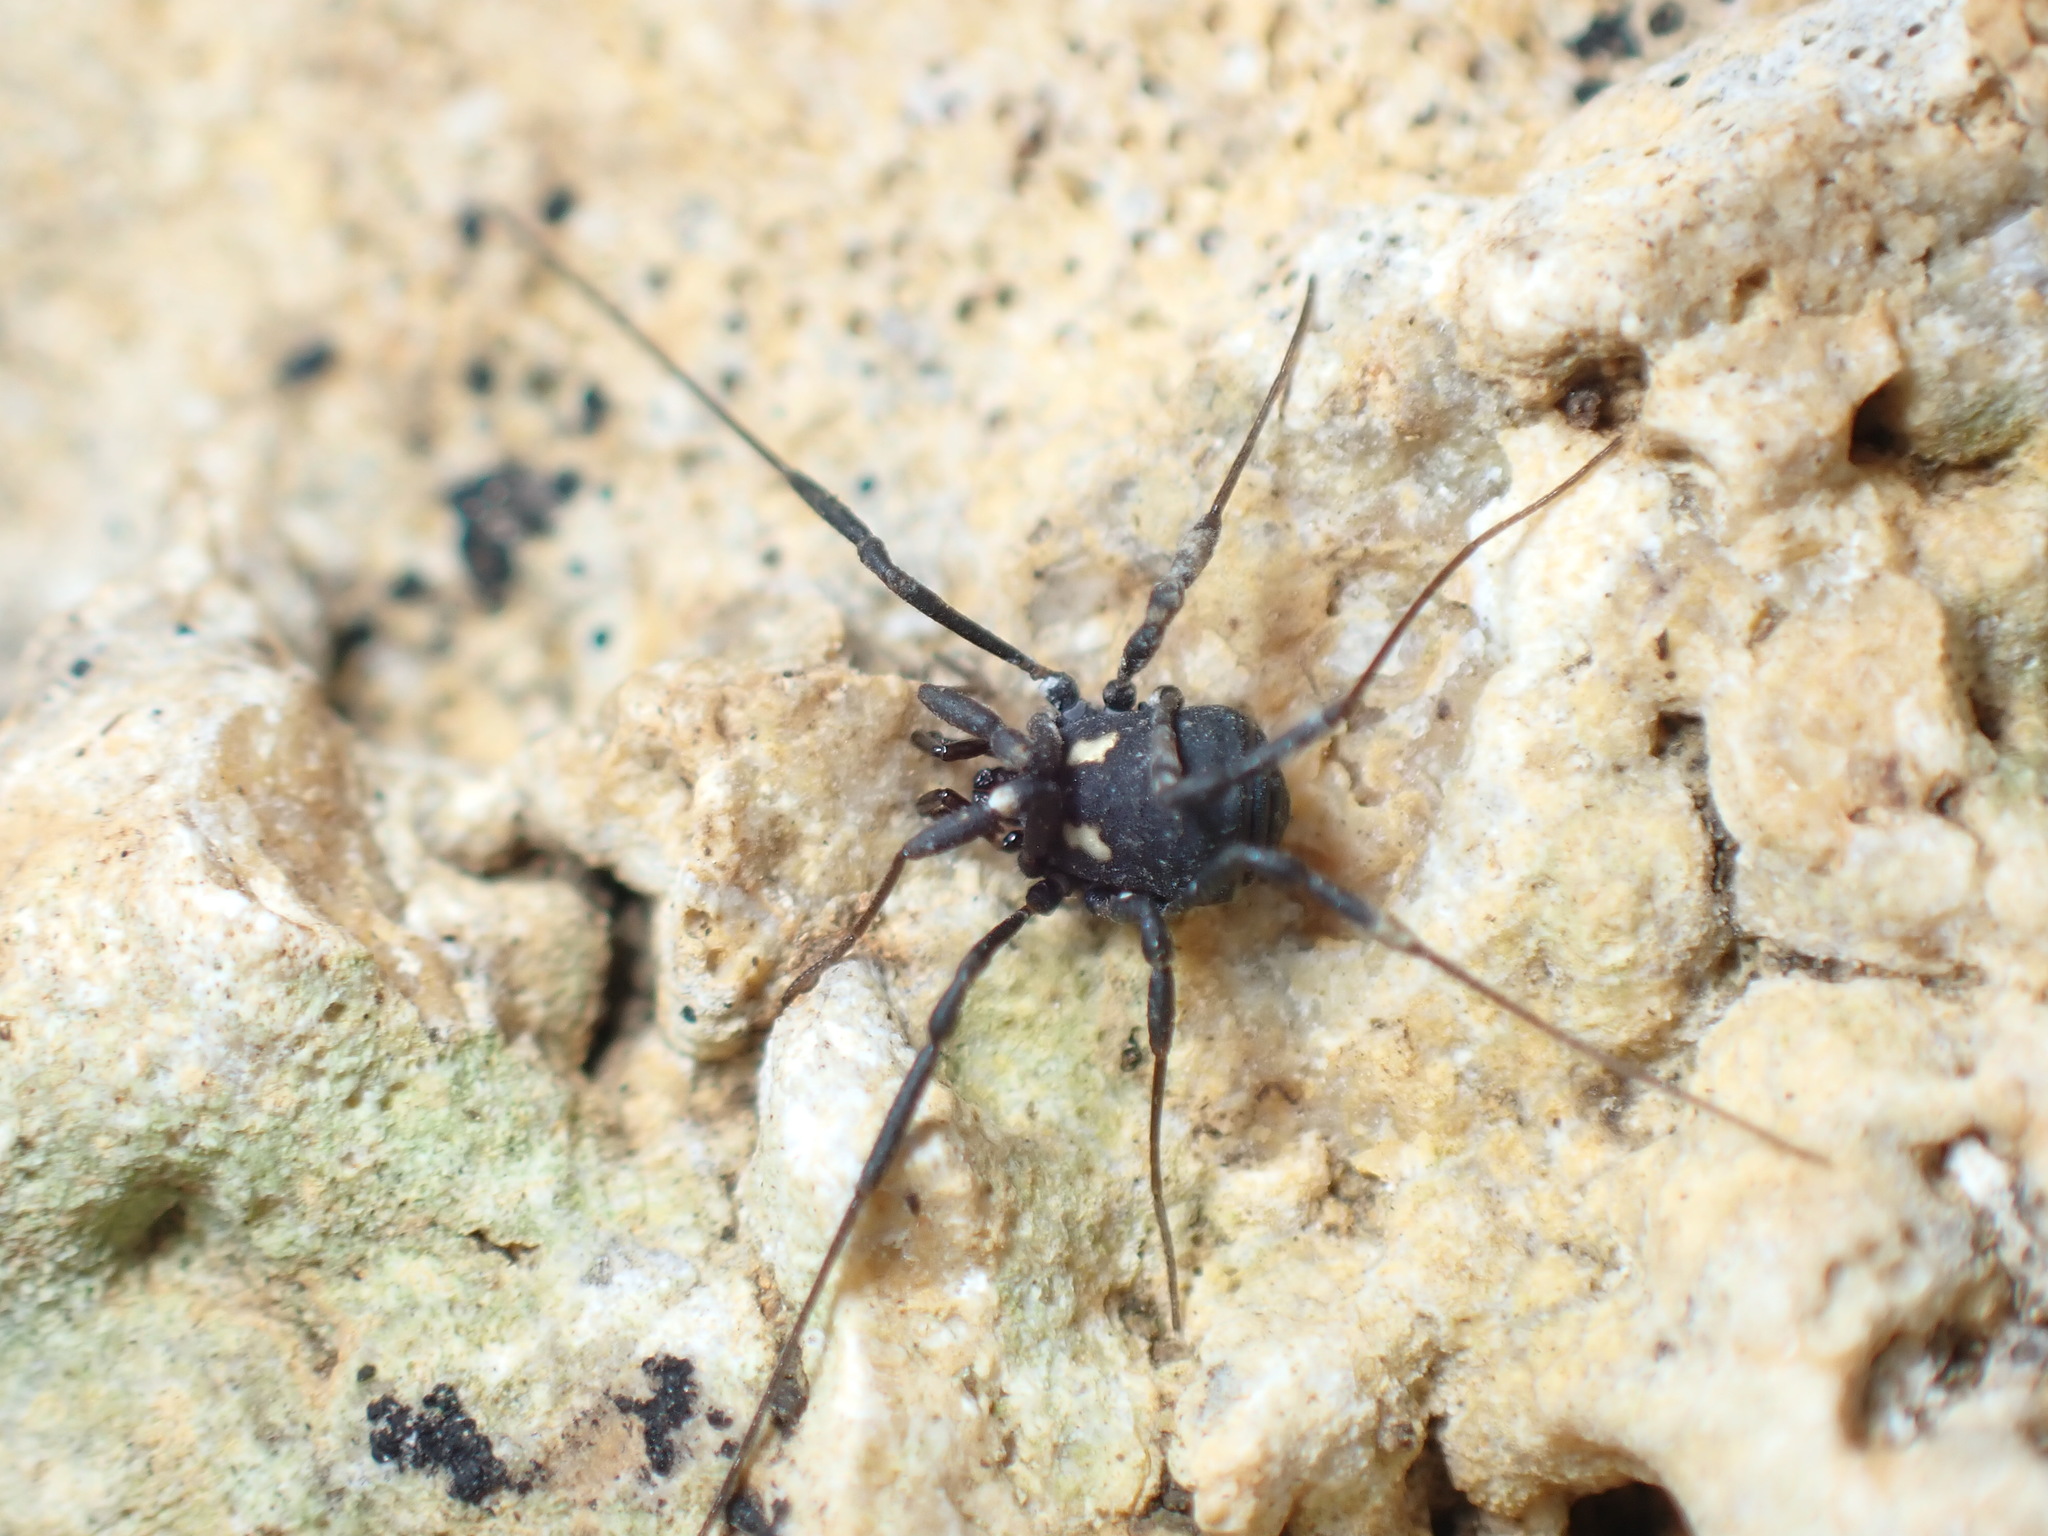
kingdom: Animalia
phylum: Arthropoda
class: Arachnida
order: Opiliones
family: Nemastomatidae
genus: Nemastoma
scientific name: Nemastoma bimaculatum
